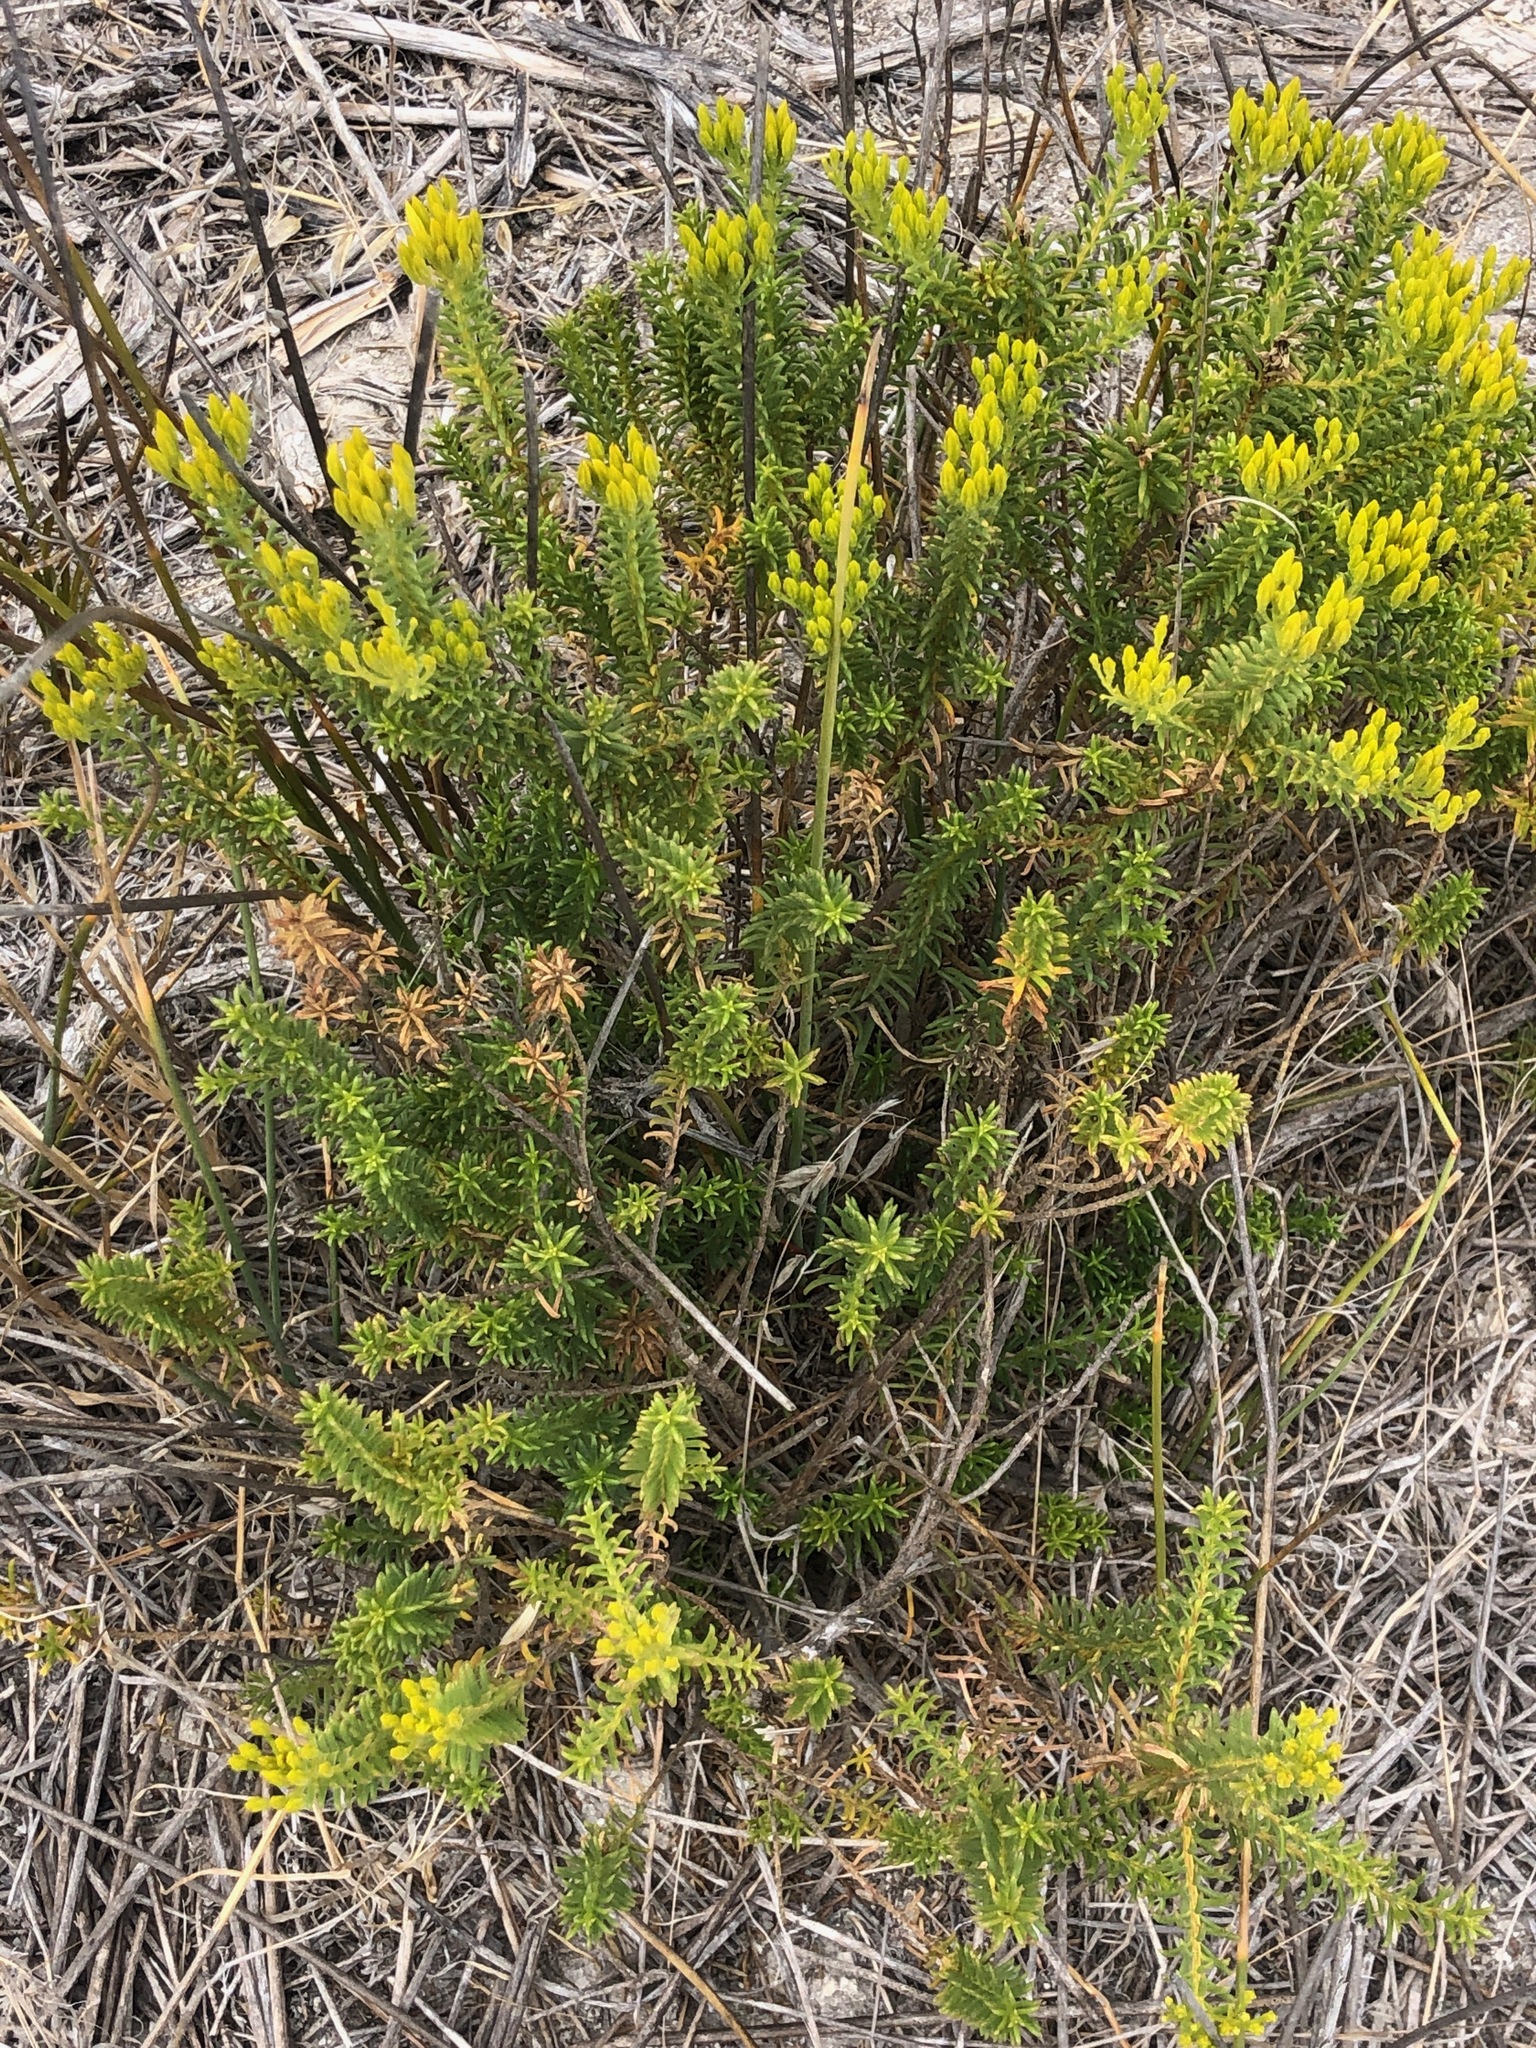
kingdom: Plantae
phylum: Tracheophyta
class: Magnoliopsida
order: Asterales
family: Asteraceae
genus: Pteronia
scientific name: Pteronia uncinata
